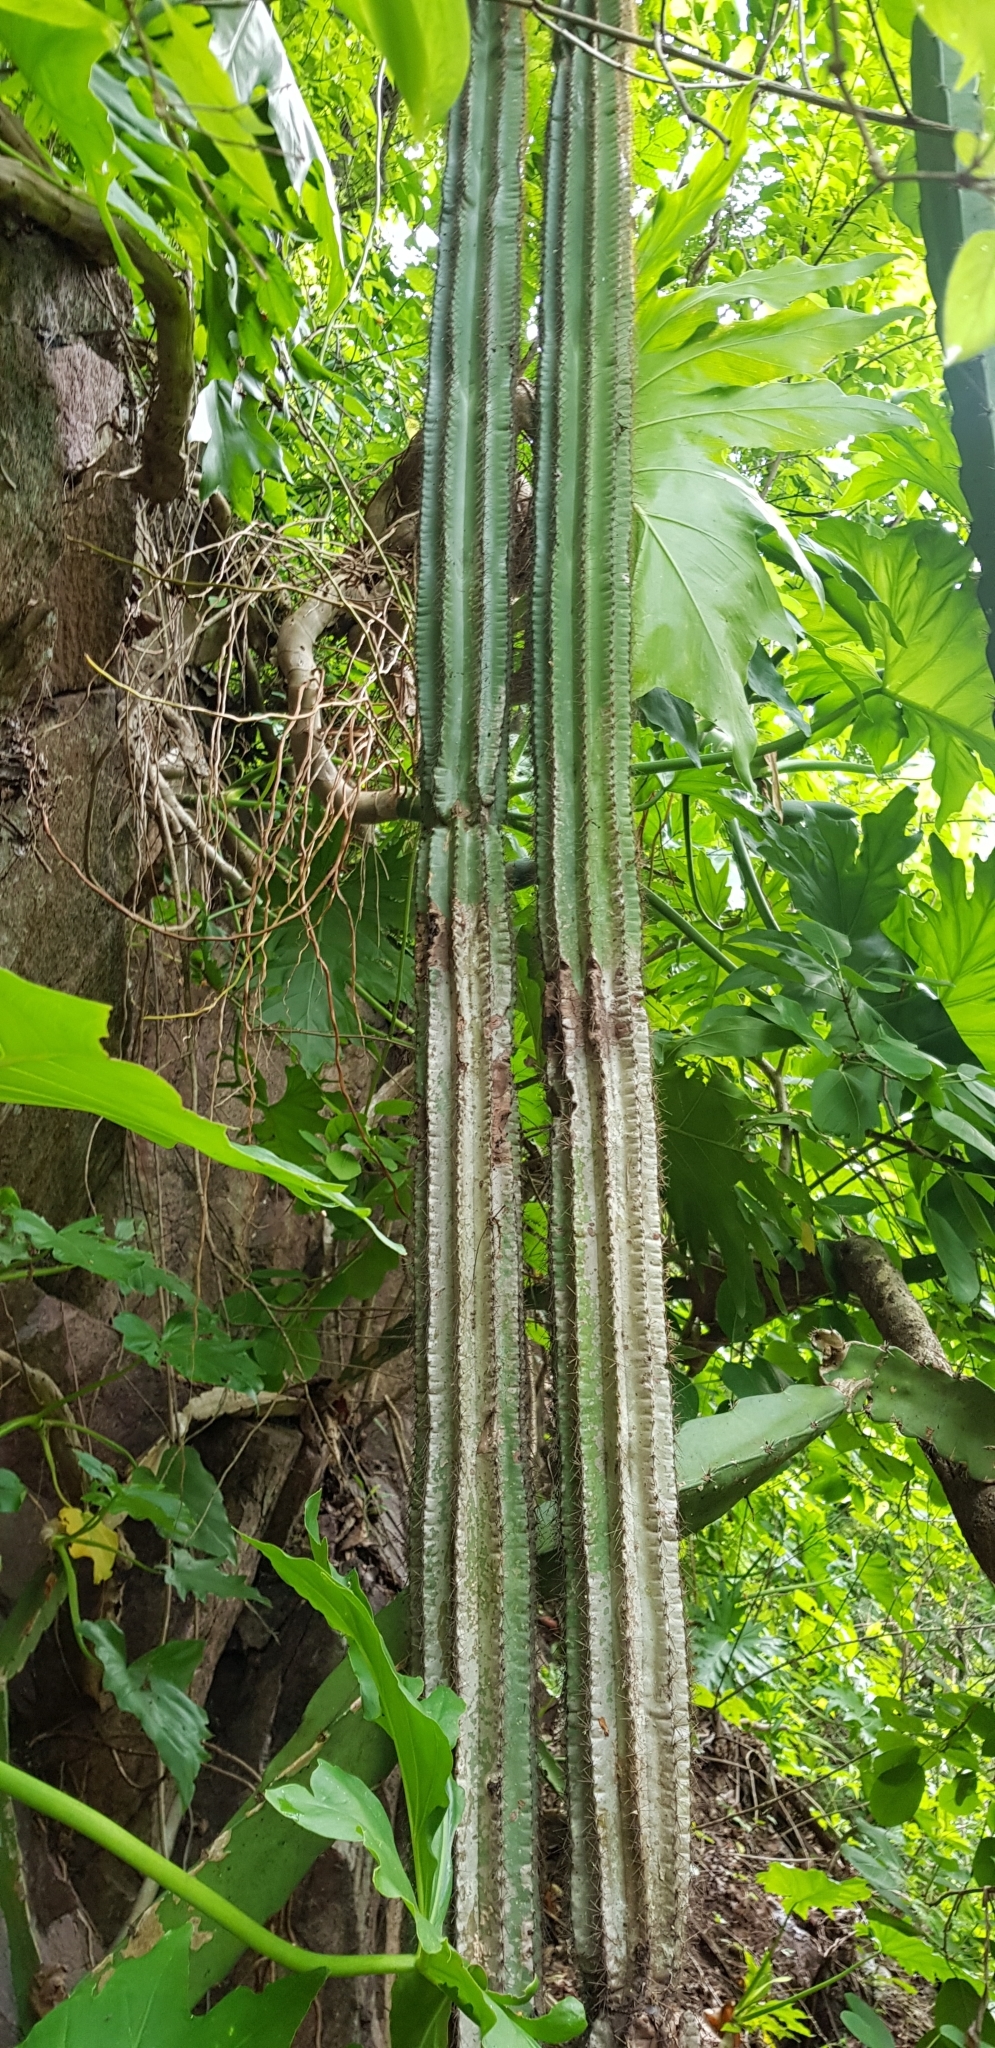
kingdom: Plantae
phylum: Tracheophyta
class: Magnoliopsida
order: Caryophyllales
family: Cactaceae
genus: Pilosocereus
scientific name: Pilosocereus purpusii
